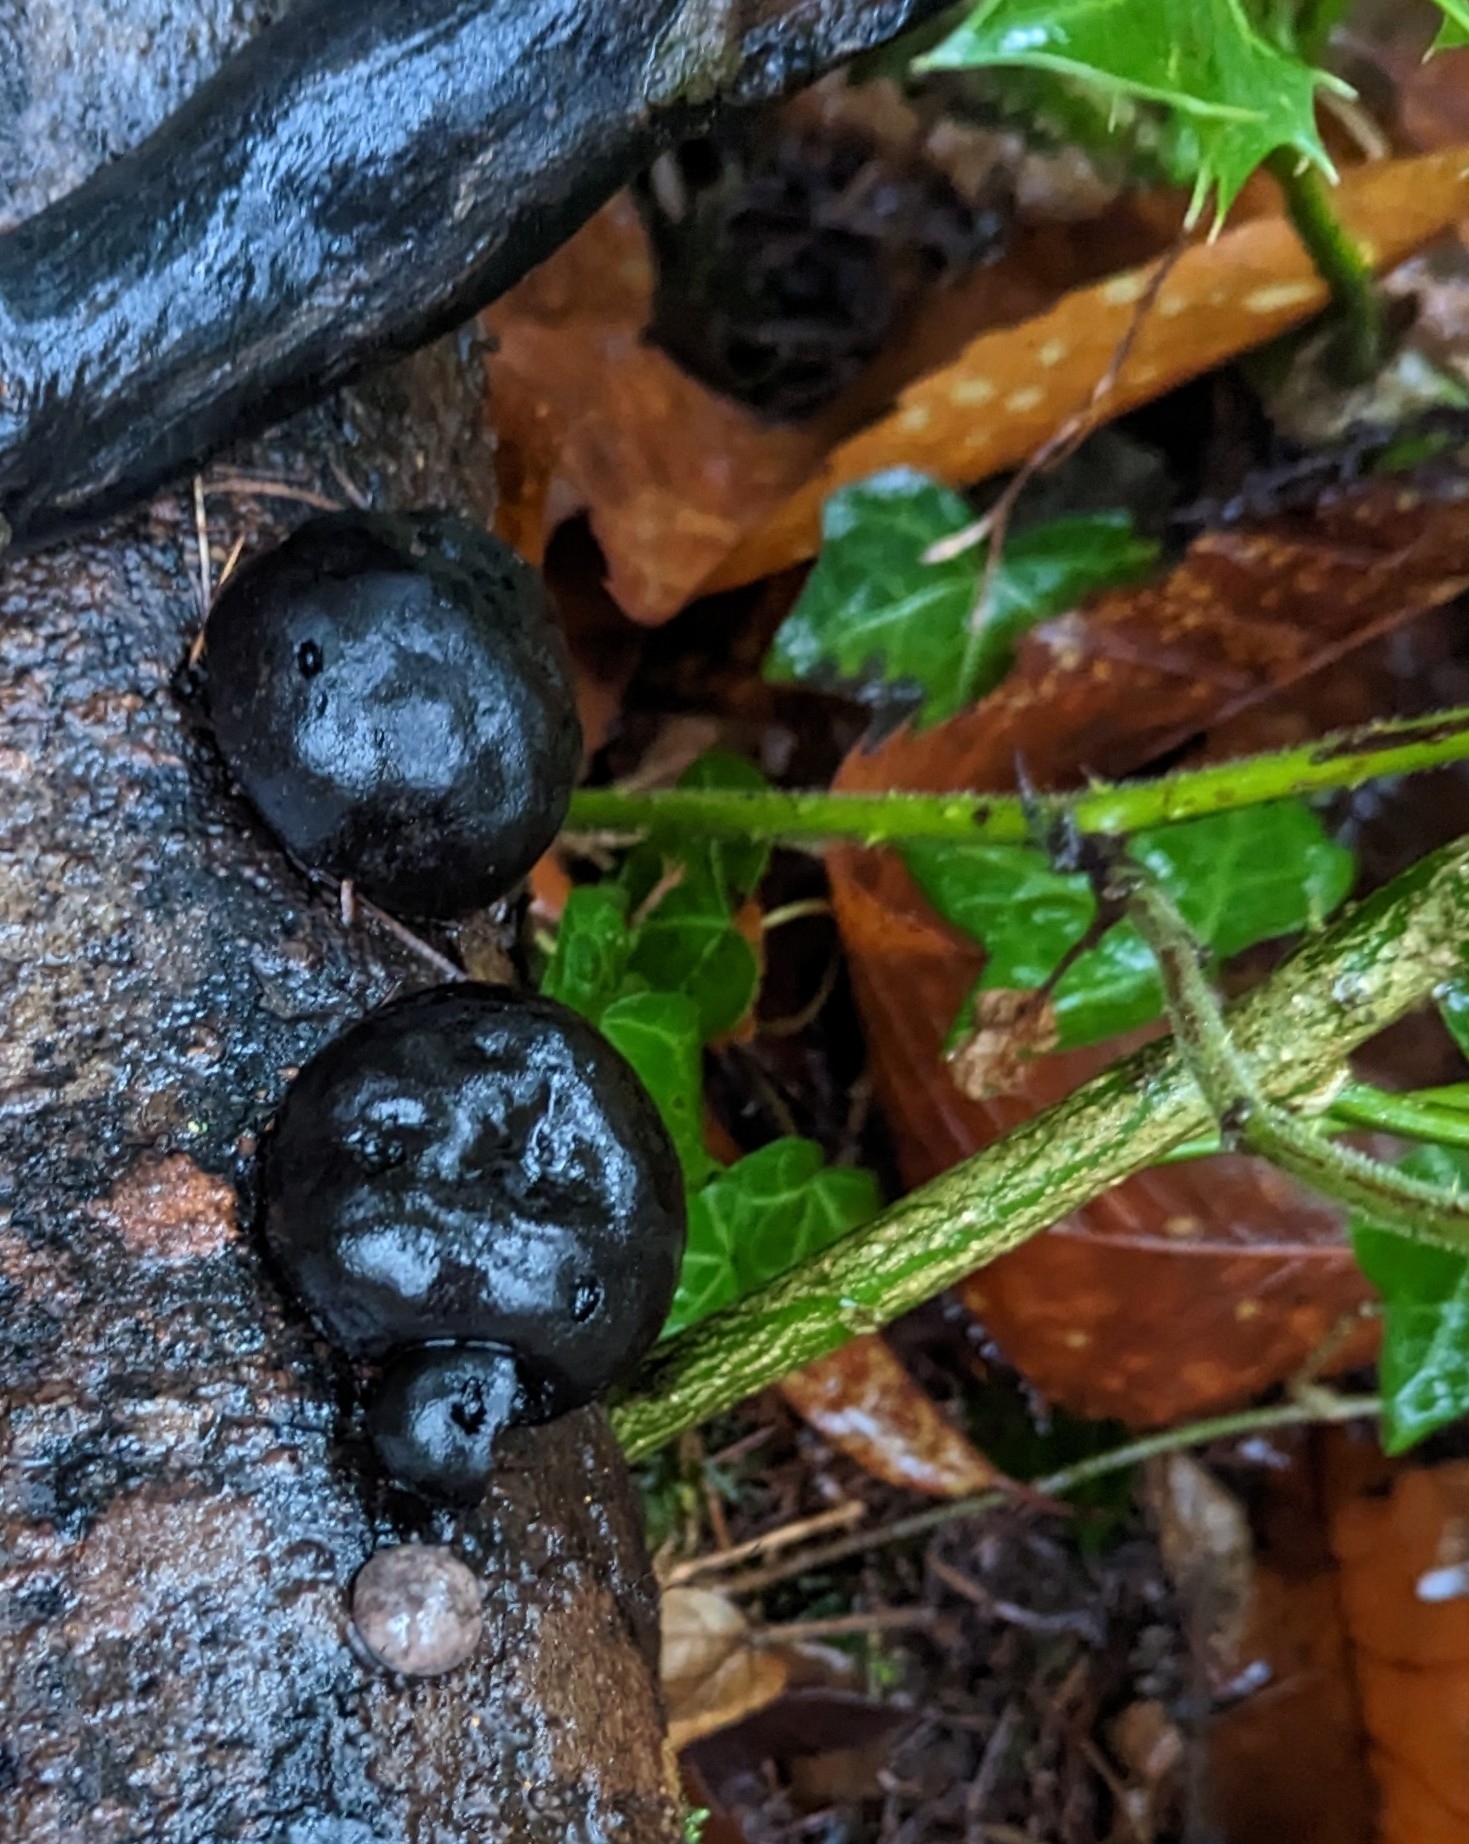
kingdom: Fungi
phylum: Ascomycota
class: Sordariomycetes
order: Xylariales
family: Hypoxylaceae
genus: Daldinia
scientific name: Daldinia concentrica
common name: Cramp balls
